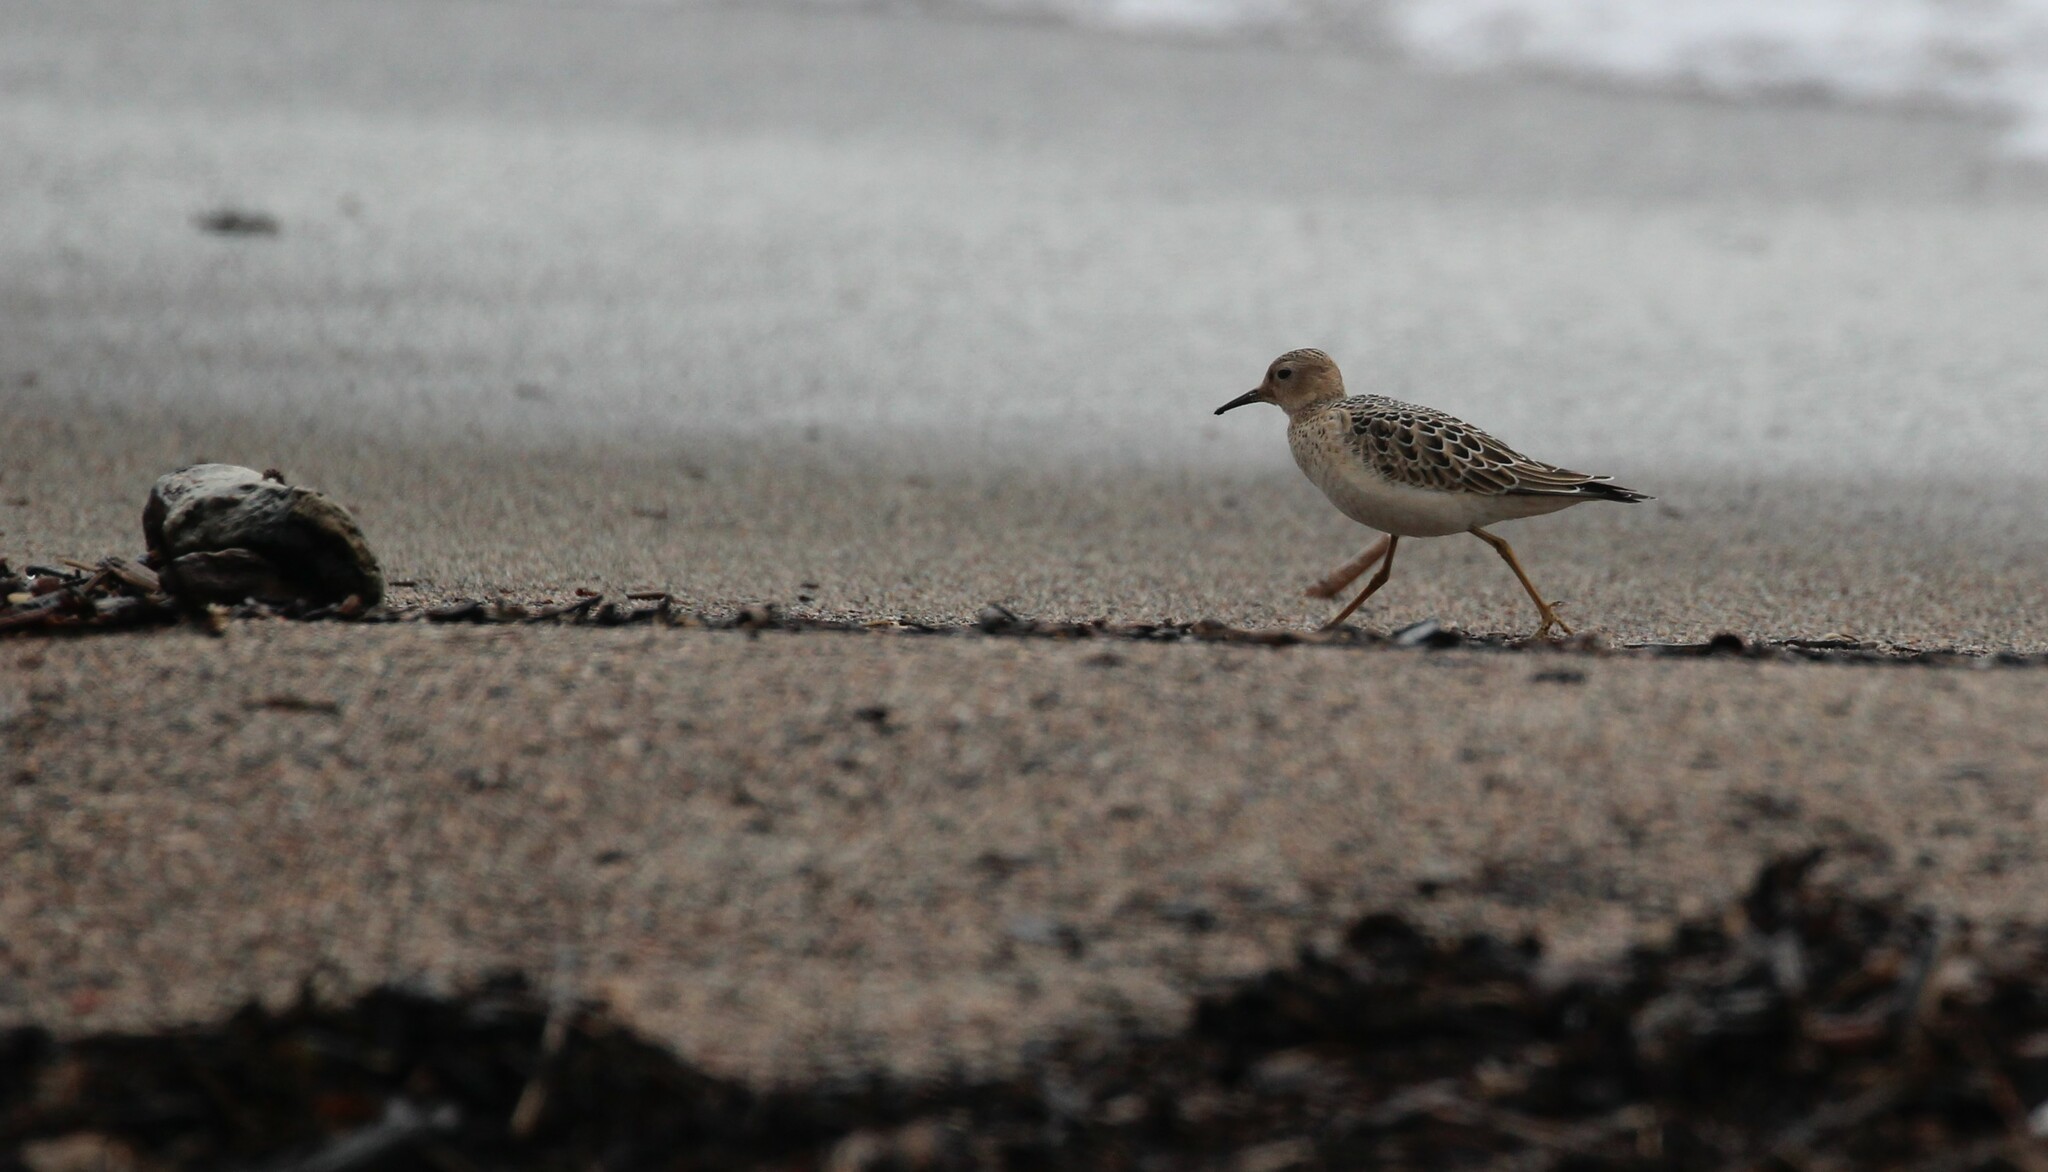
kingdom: Animalia
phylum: Chordata
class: Aves
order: Charadriiformes
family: Scolopacidae
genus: Calidris
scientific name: Calidris subruficollis
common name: Buff-breasted sandpiper
